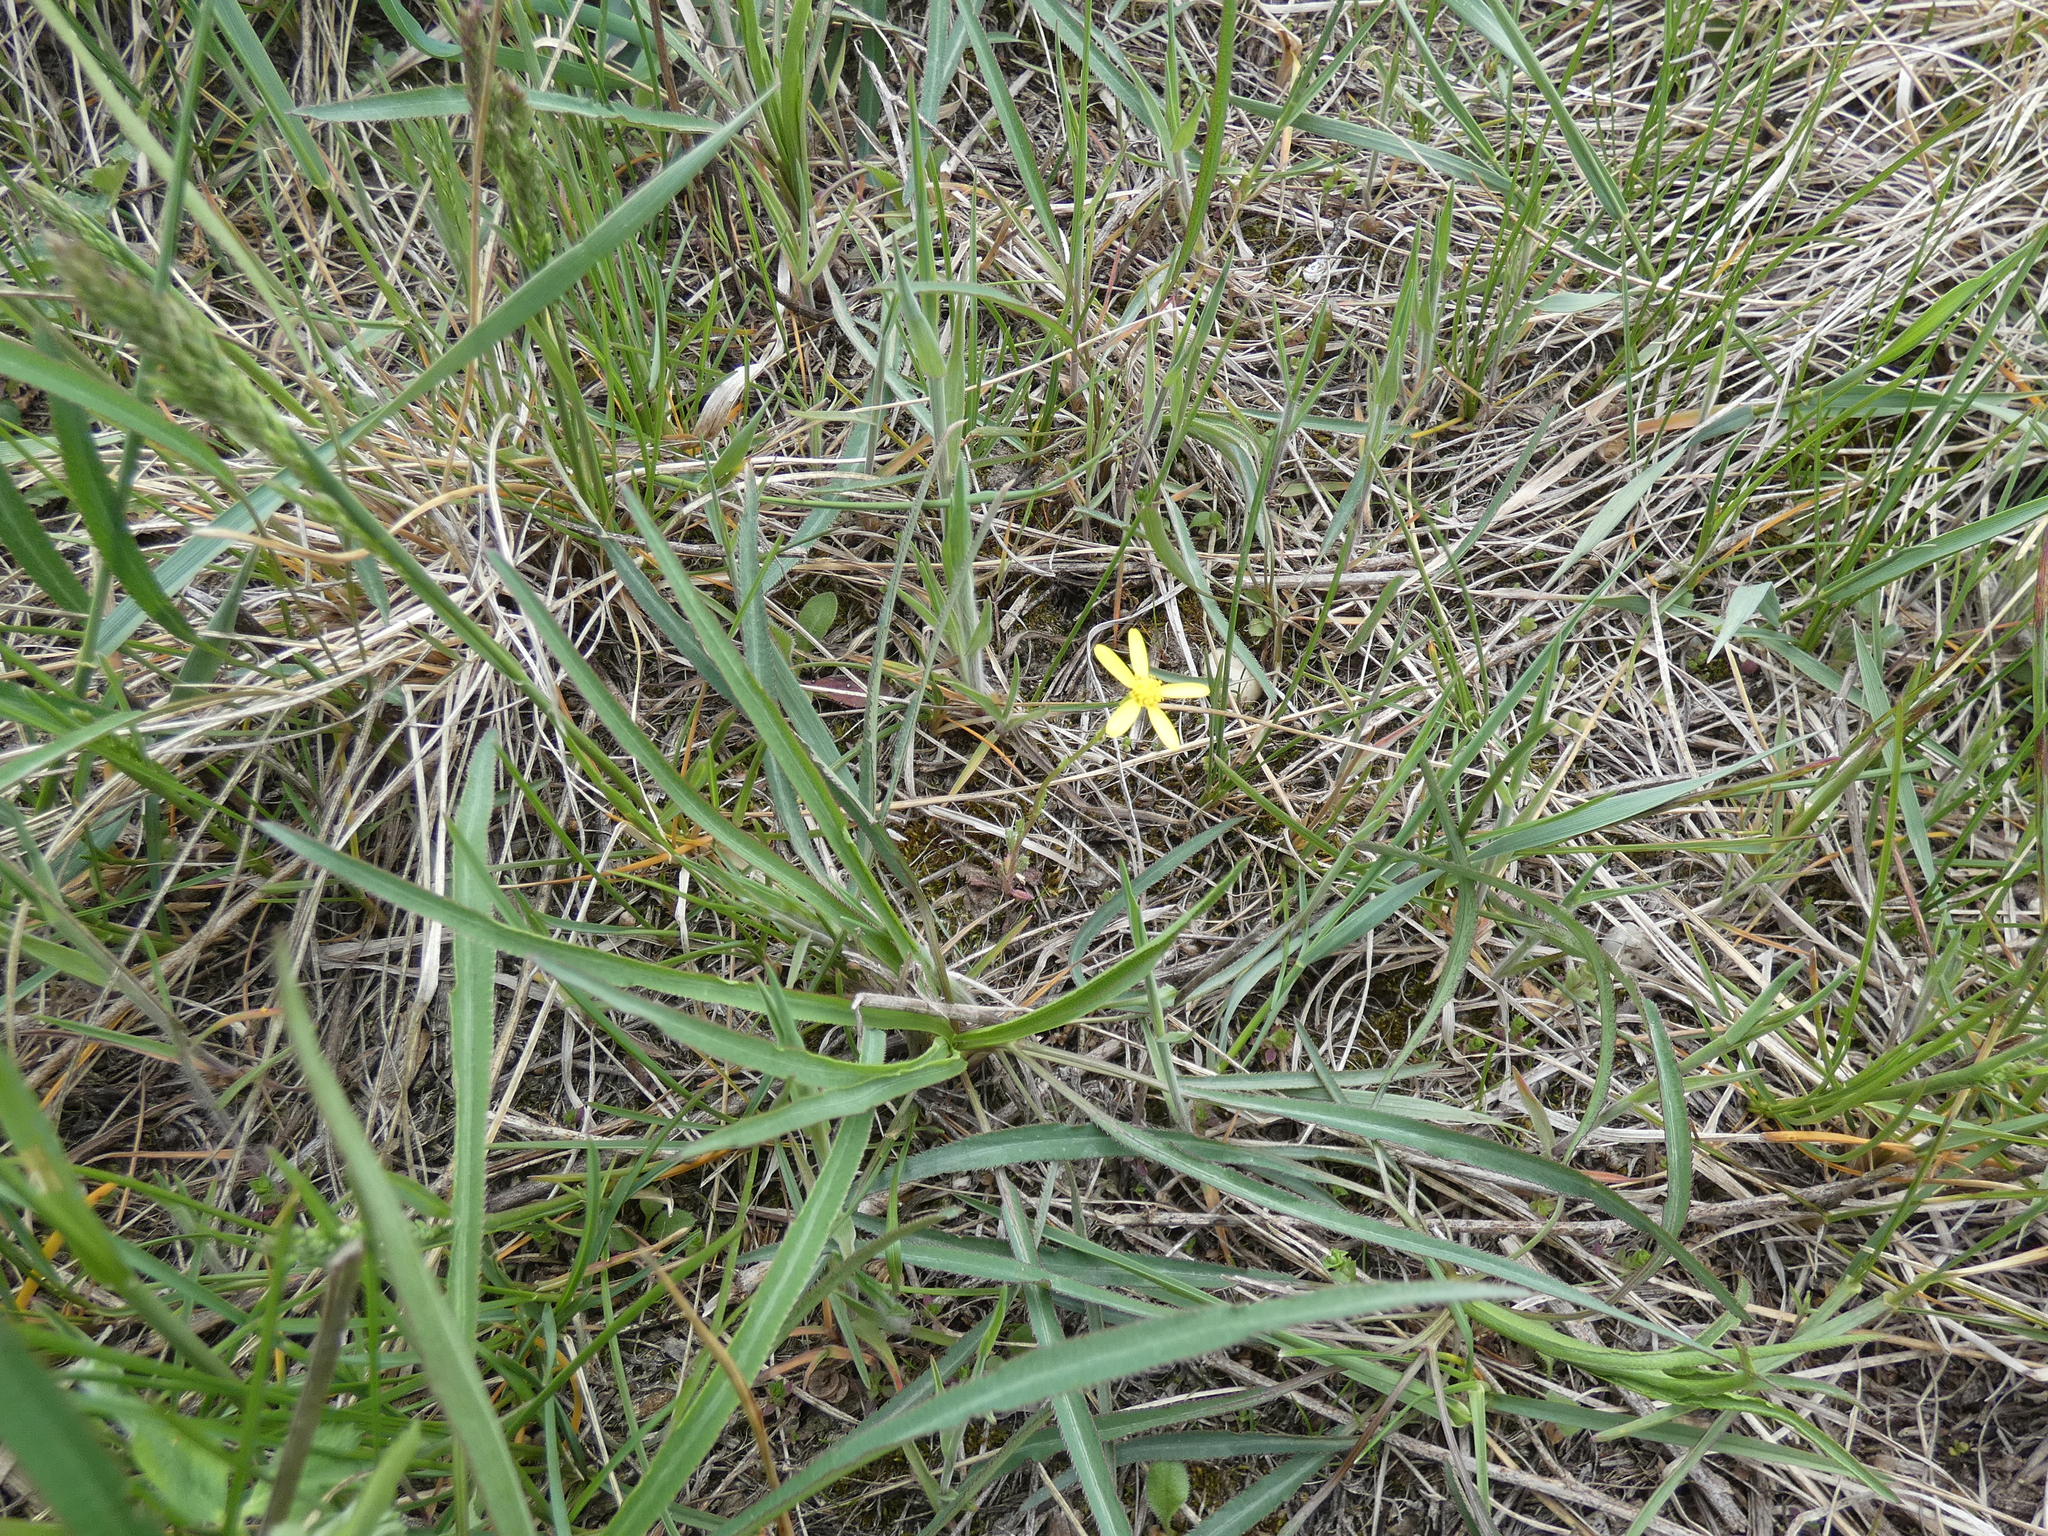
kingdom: Plantae
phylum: Tracheophyta
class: Magnoliopsida
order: Asterales
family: Asteraceae
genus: Senecio
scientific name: Senecio vernalis
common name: Eastern groundsel
